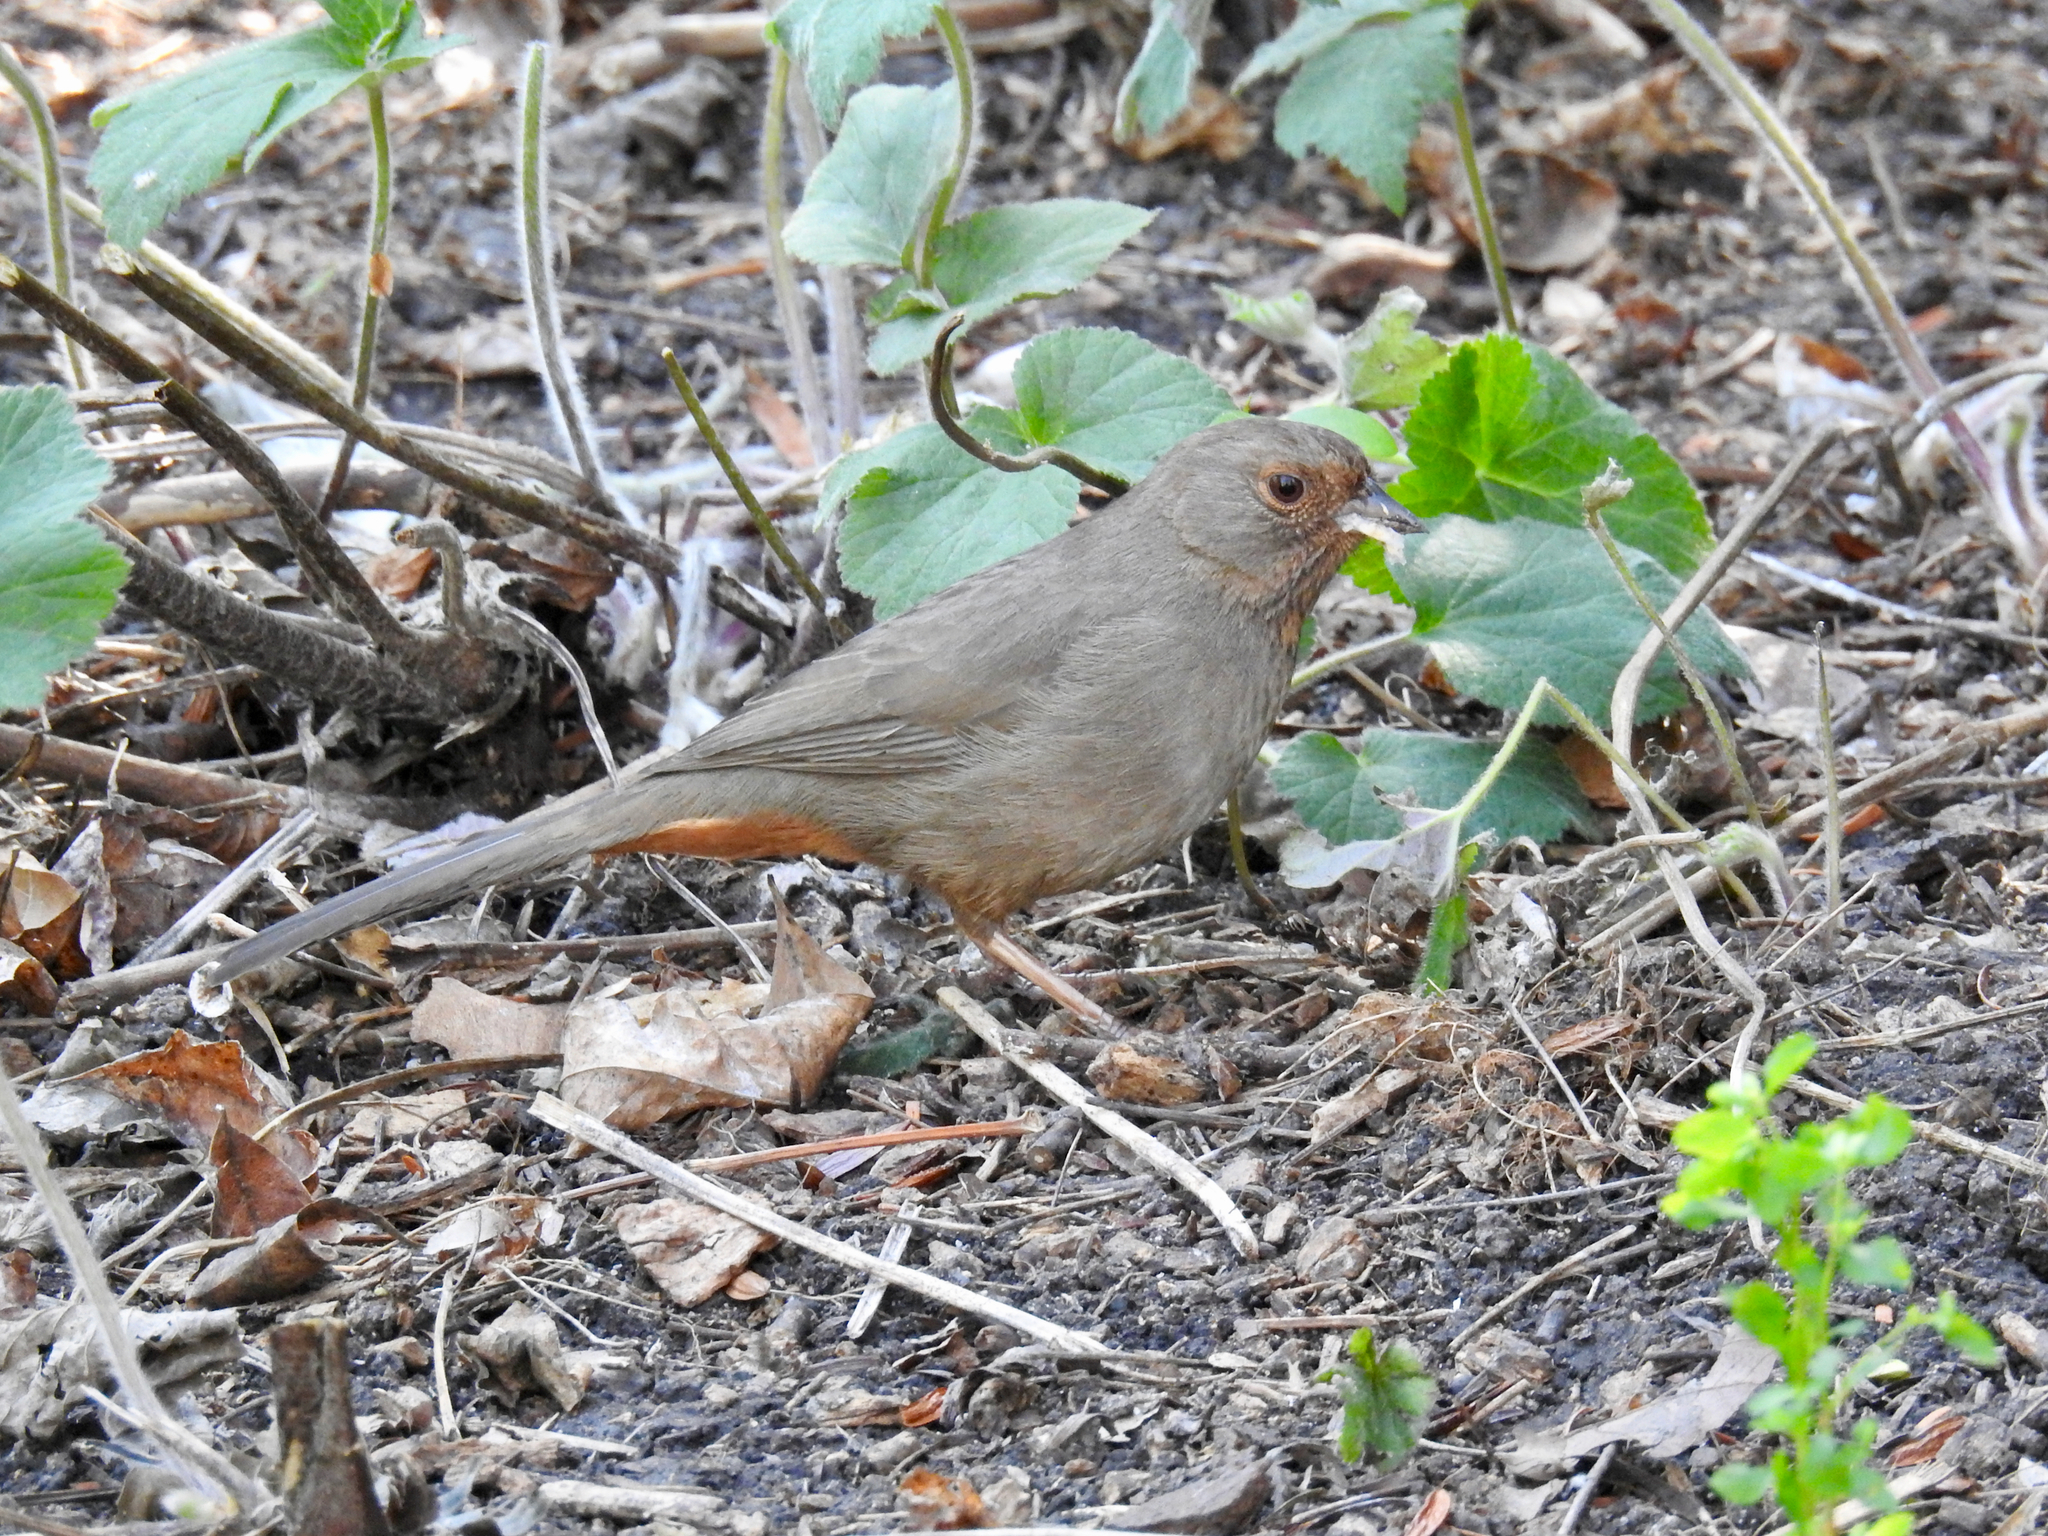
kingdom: Animalia
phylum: Chordata
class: Aves
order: Passeriformes
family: Passerellidae
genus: Melozone
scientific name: Melozone crissalis
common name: California towhee
